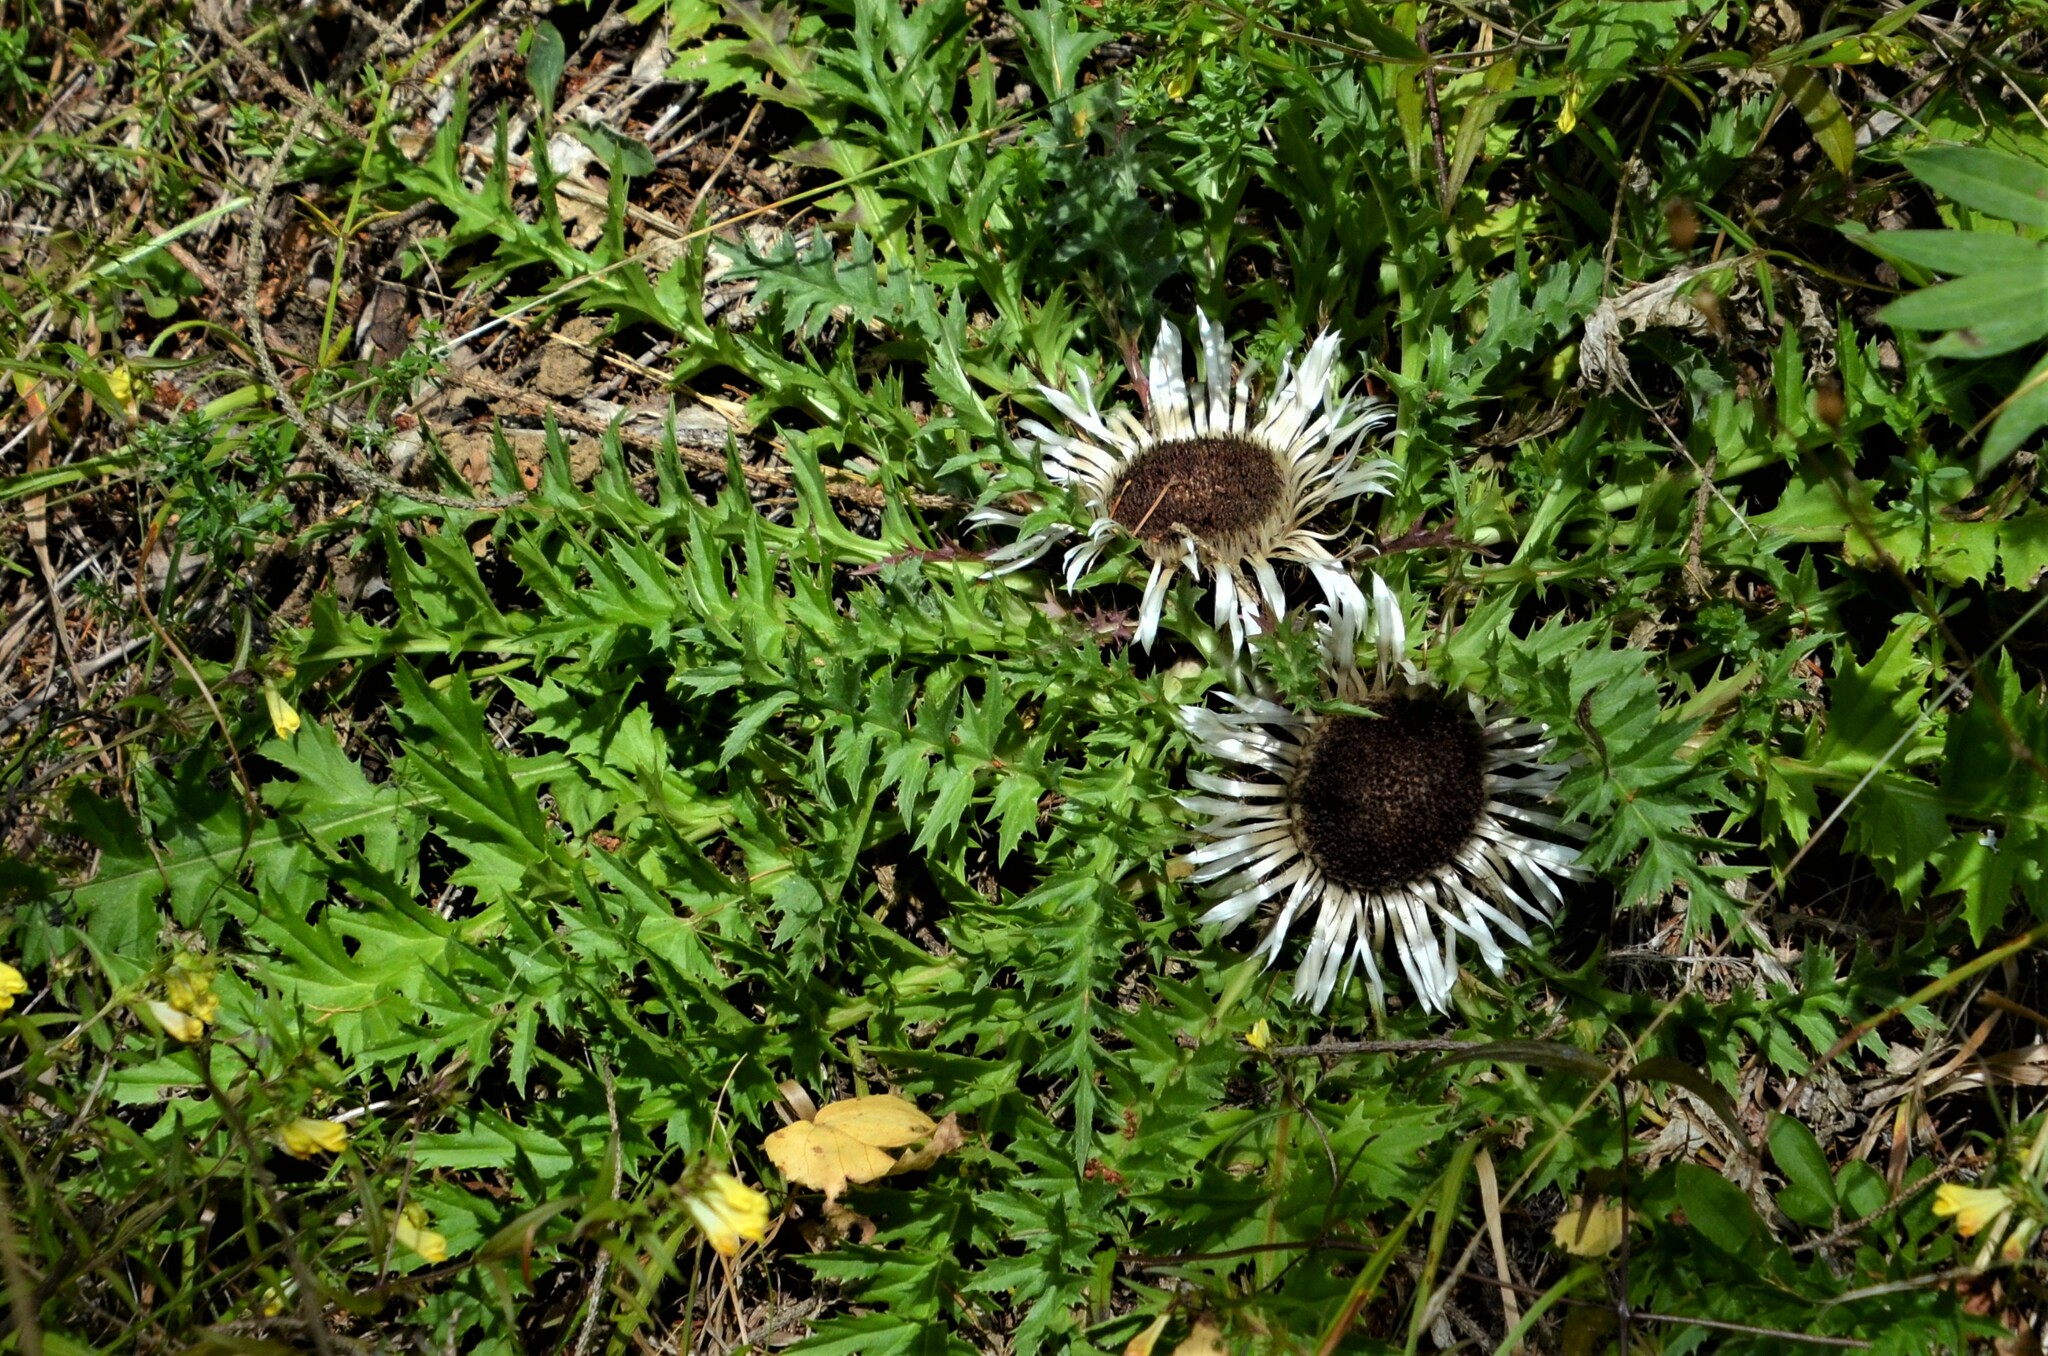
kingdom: Plantae
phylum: Tracheophyta
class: Magnoliopsida
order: Asterales
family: Asteraceae
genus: Carlina
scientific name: Carlina acaulis
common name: Stemless carline thistle
